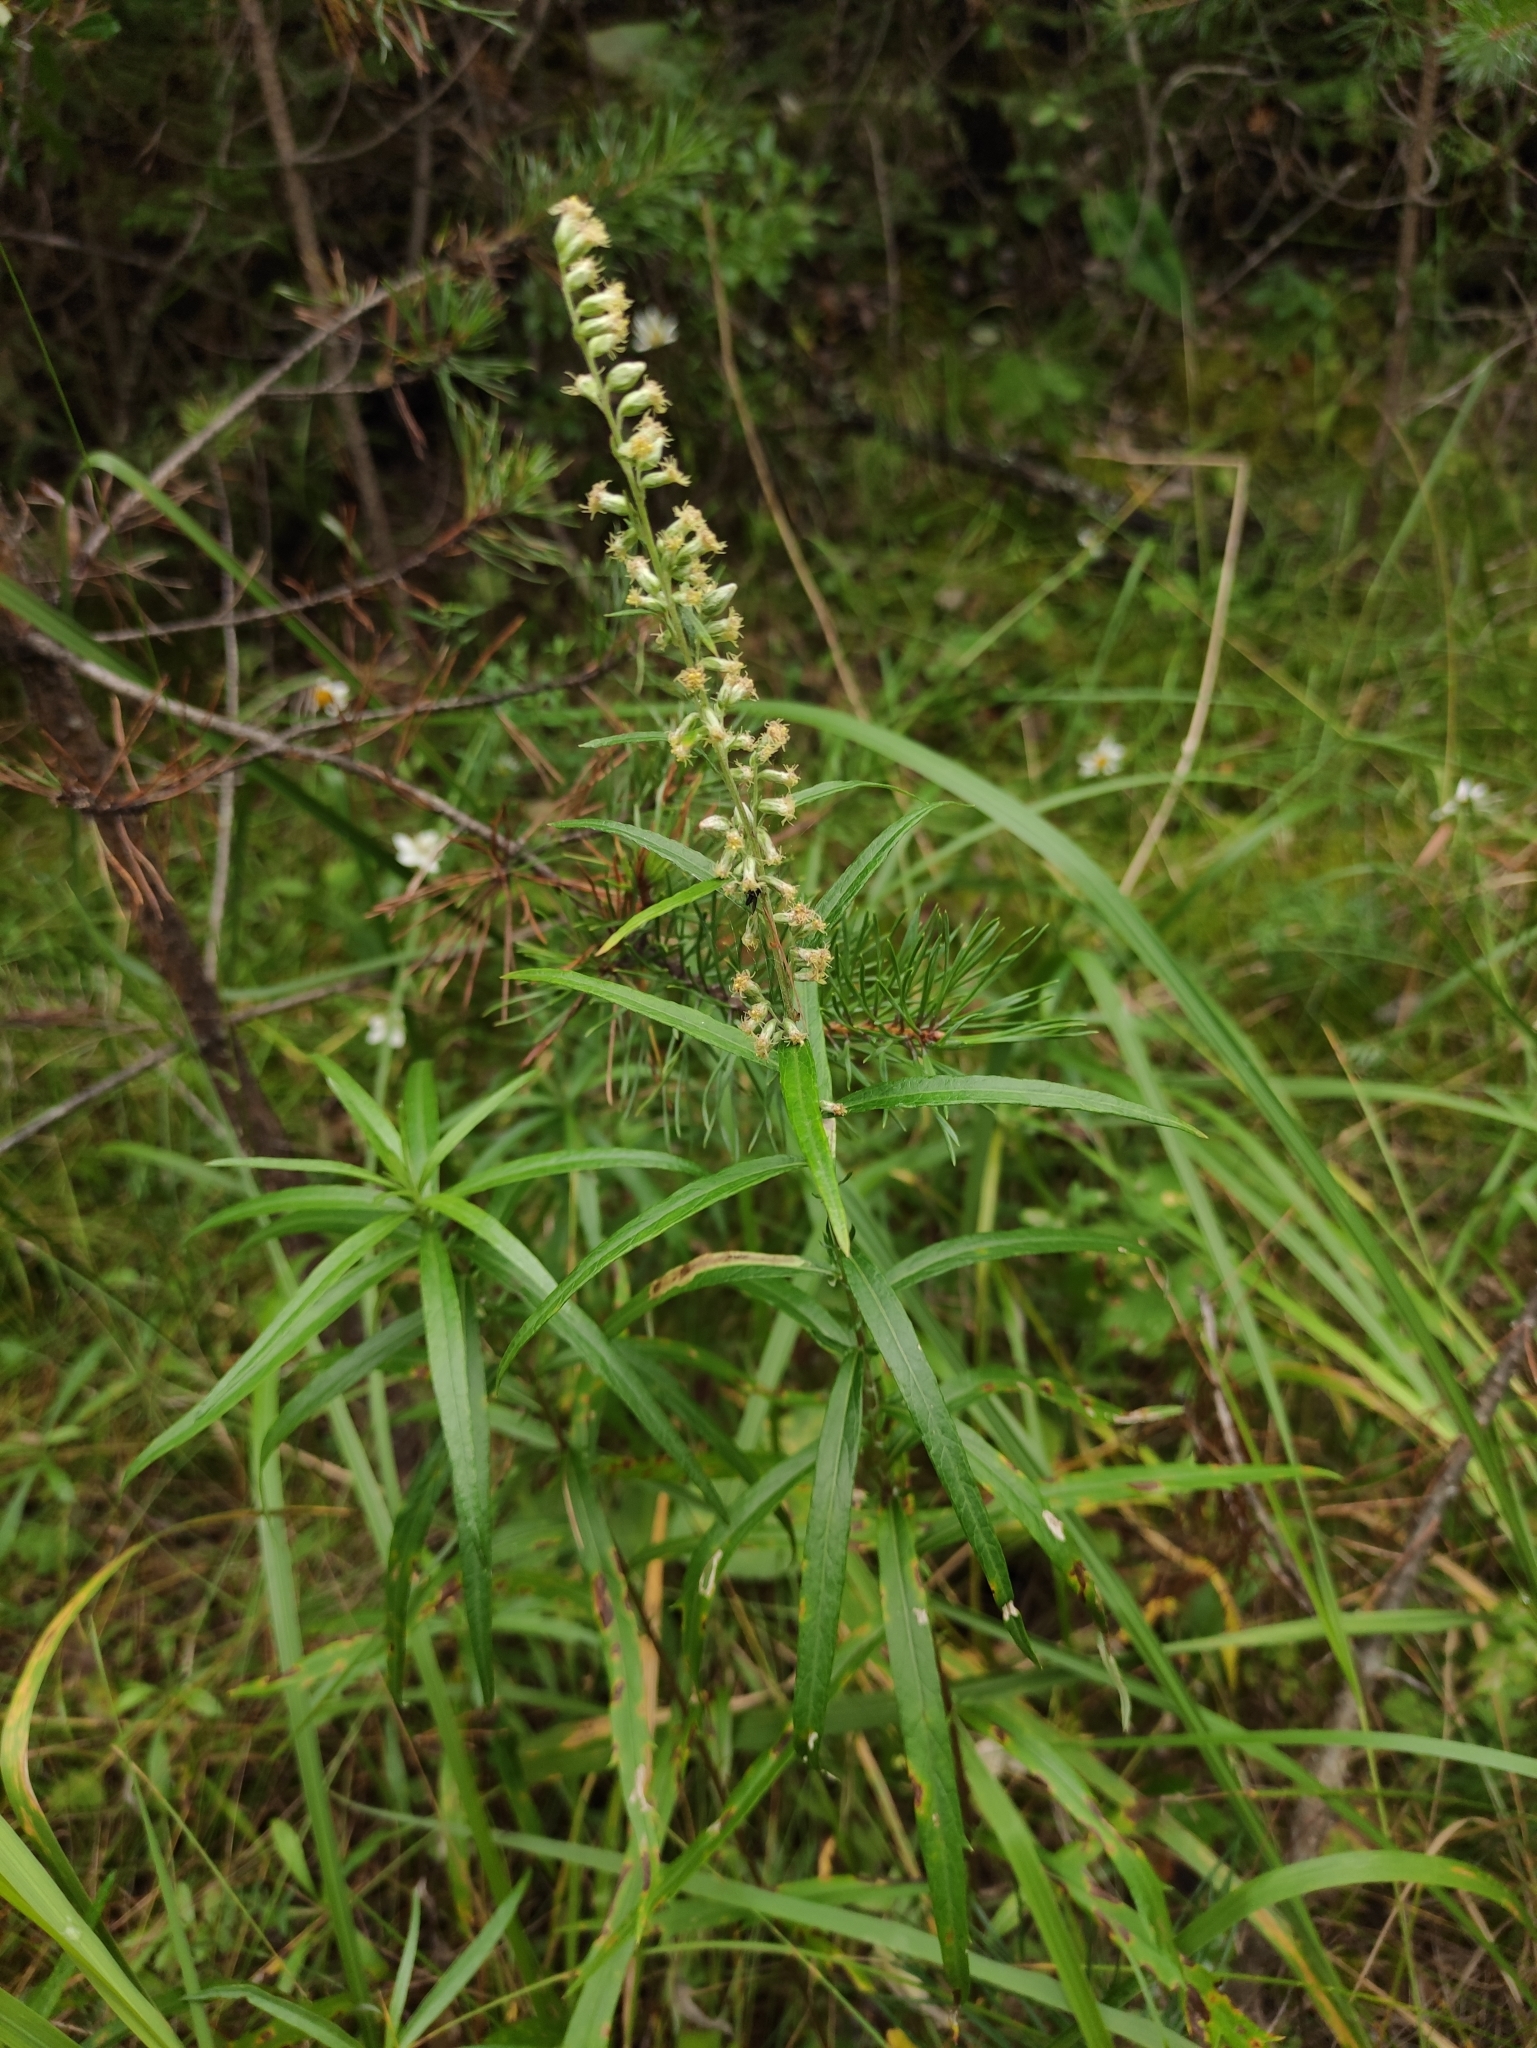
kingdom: Plantae
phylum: Tracheophyta
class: Magnoliopsida
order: Asterales
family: Asteraceae
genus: Artemisia
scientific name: Artemisia integrifolia
